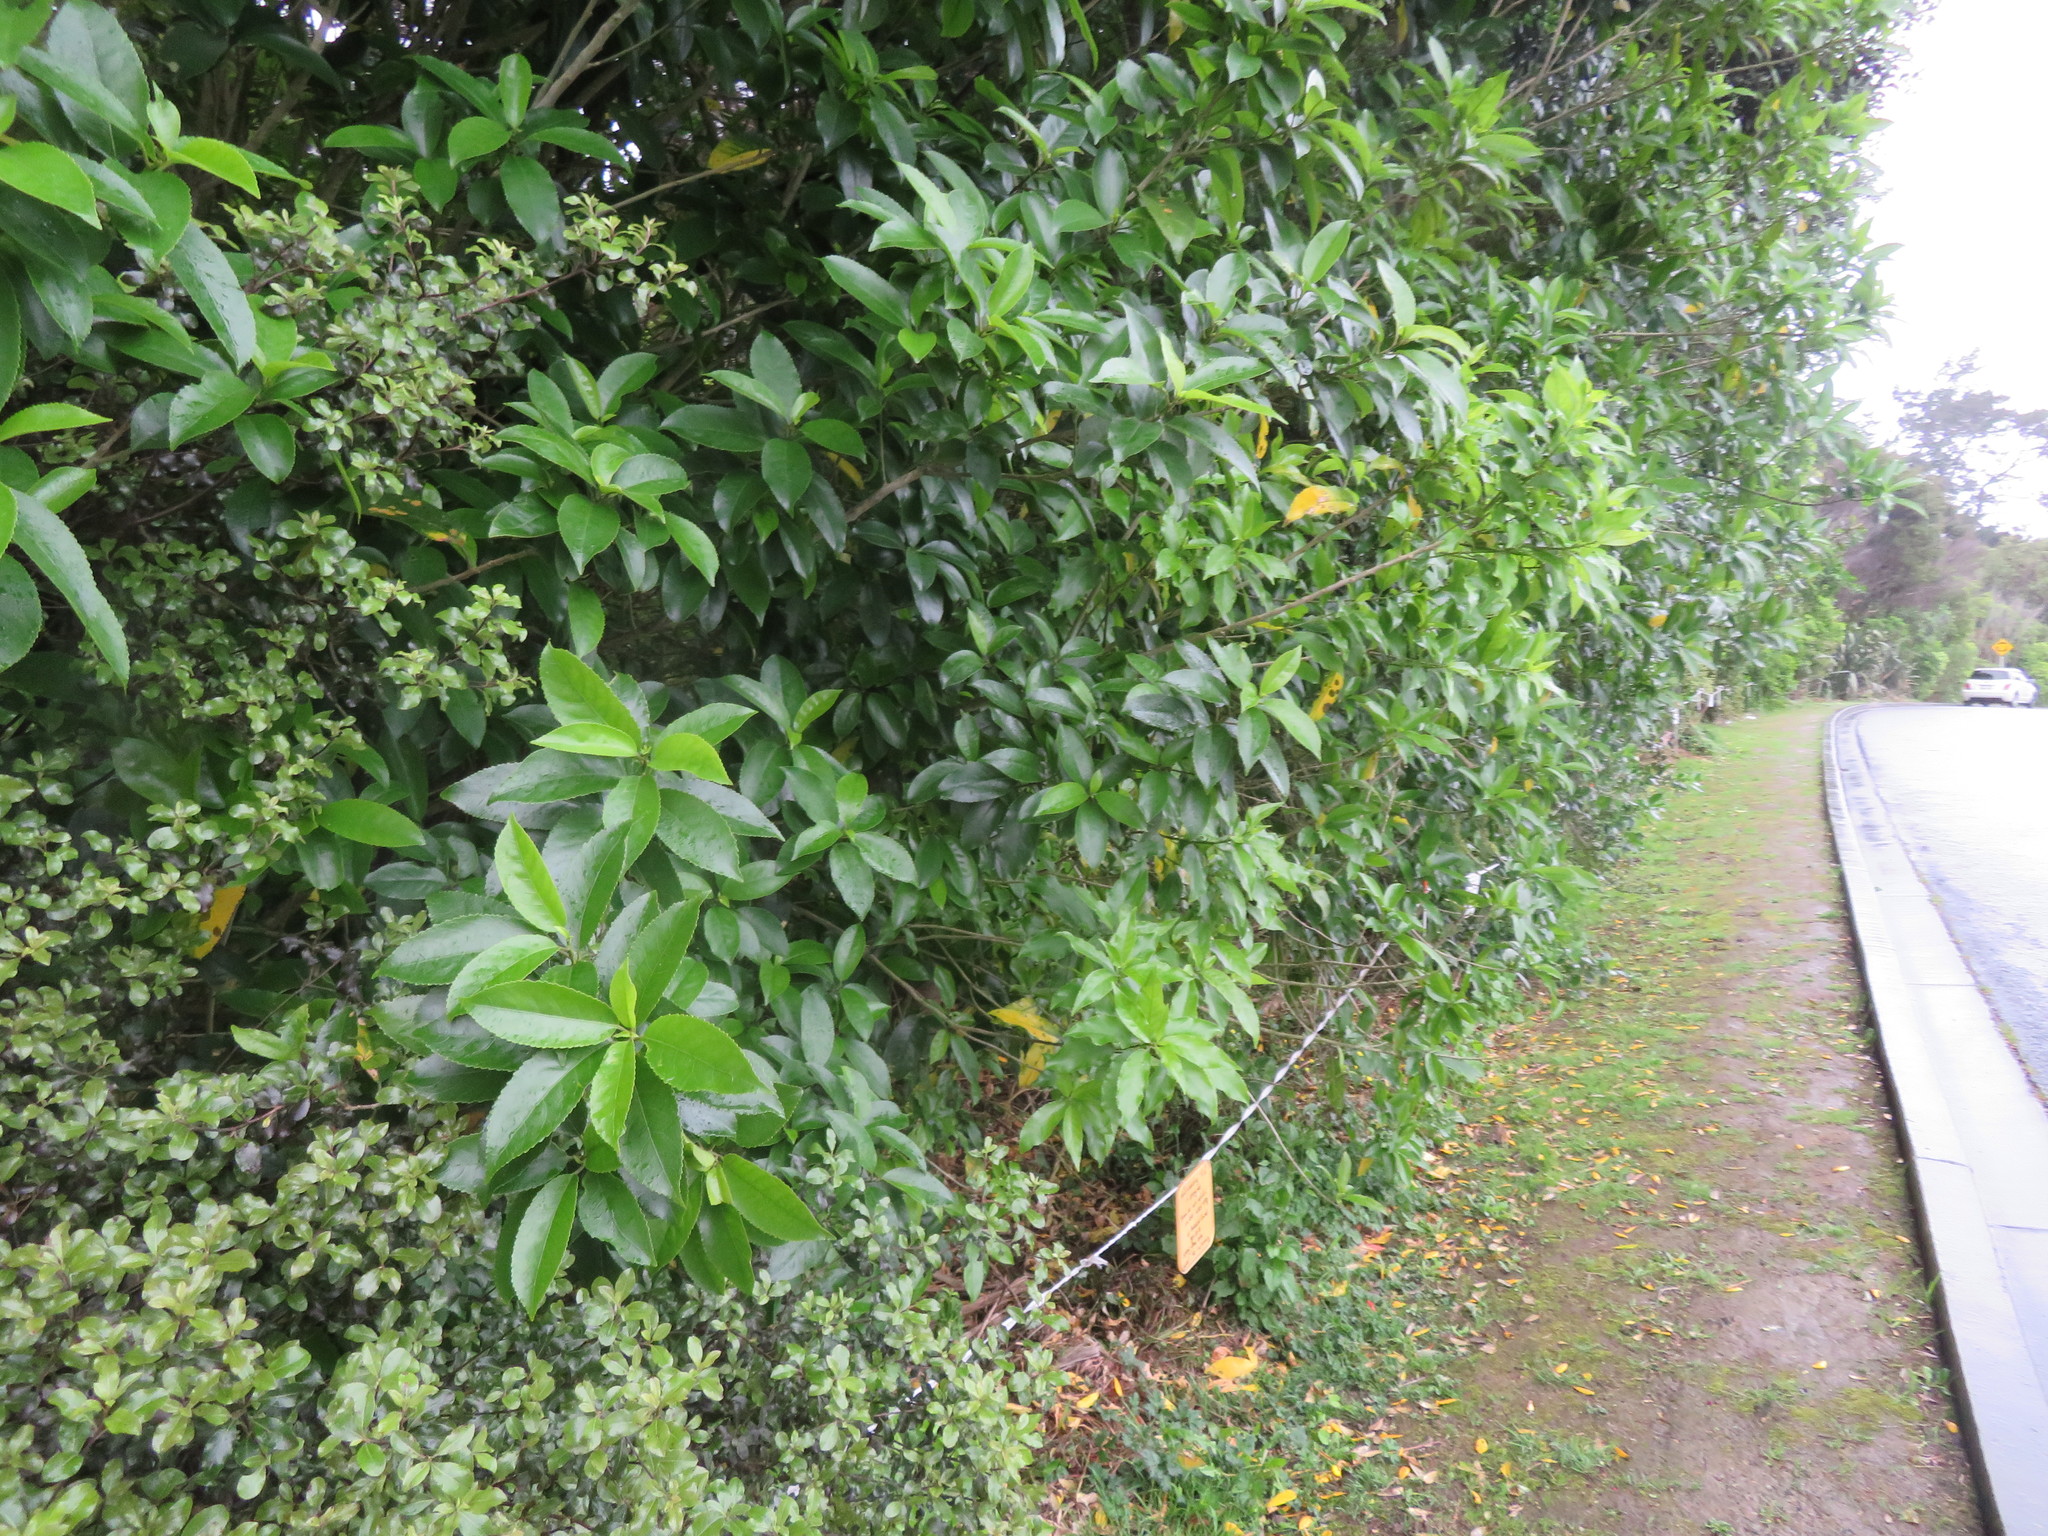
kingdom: Plantae
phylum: Tracheophyta
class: Magnoliopsida
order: Malpighiales
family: Violaceae
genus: Melicytus
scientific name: Melicytus ramiflorus
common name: Mahoe
